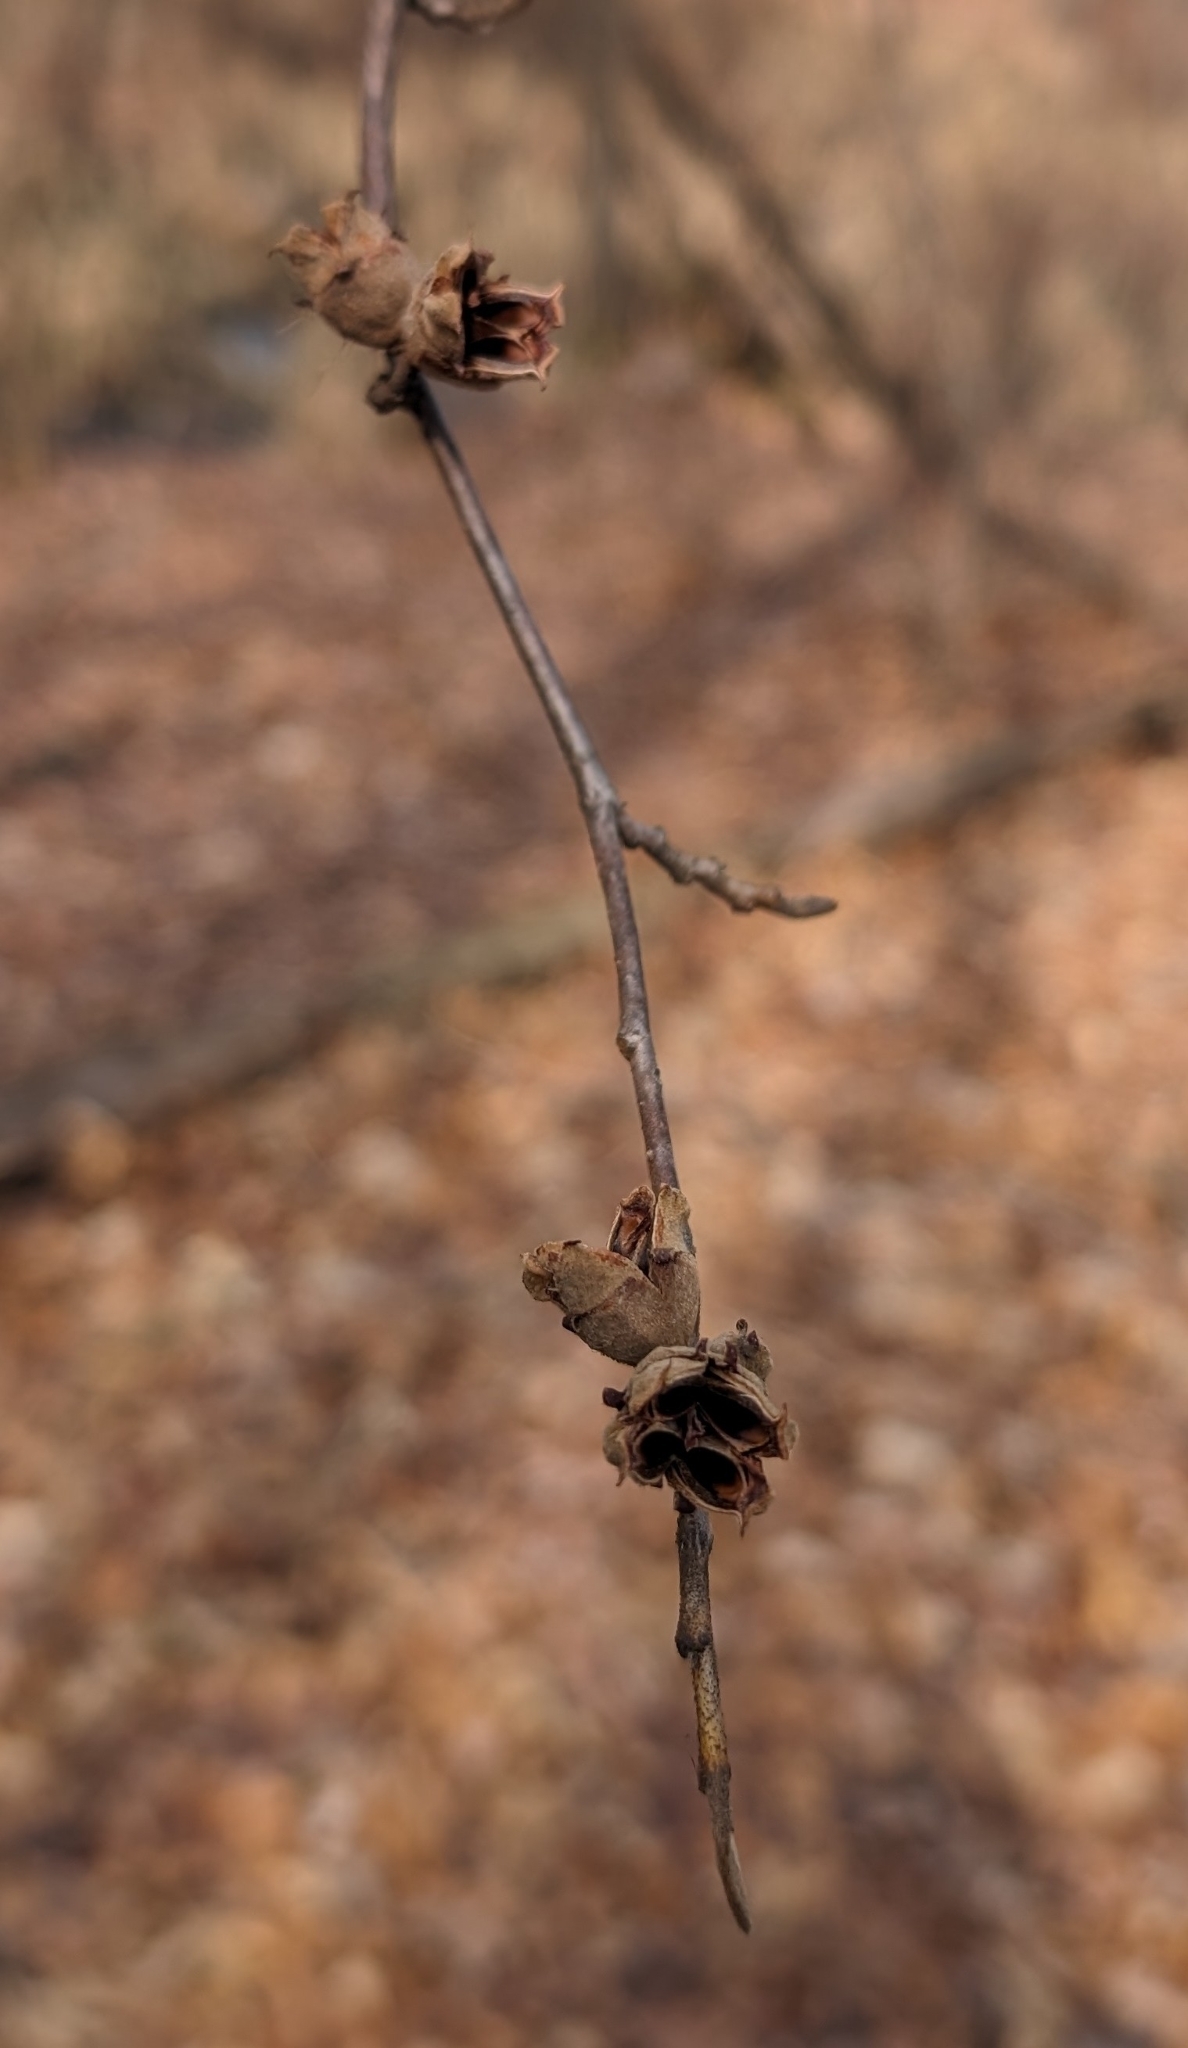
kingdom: Plantae
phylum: Tracheophyta
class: Magnoliopsida
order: Saxifragales
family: Hamamelidaceae
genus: Hamamelis
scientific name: Hamamelis virginiana
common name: Witch-hazel
